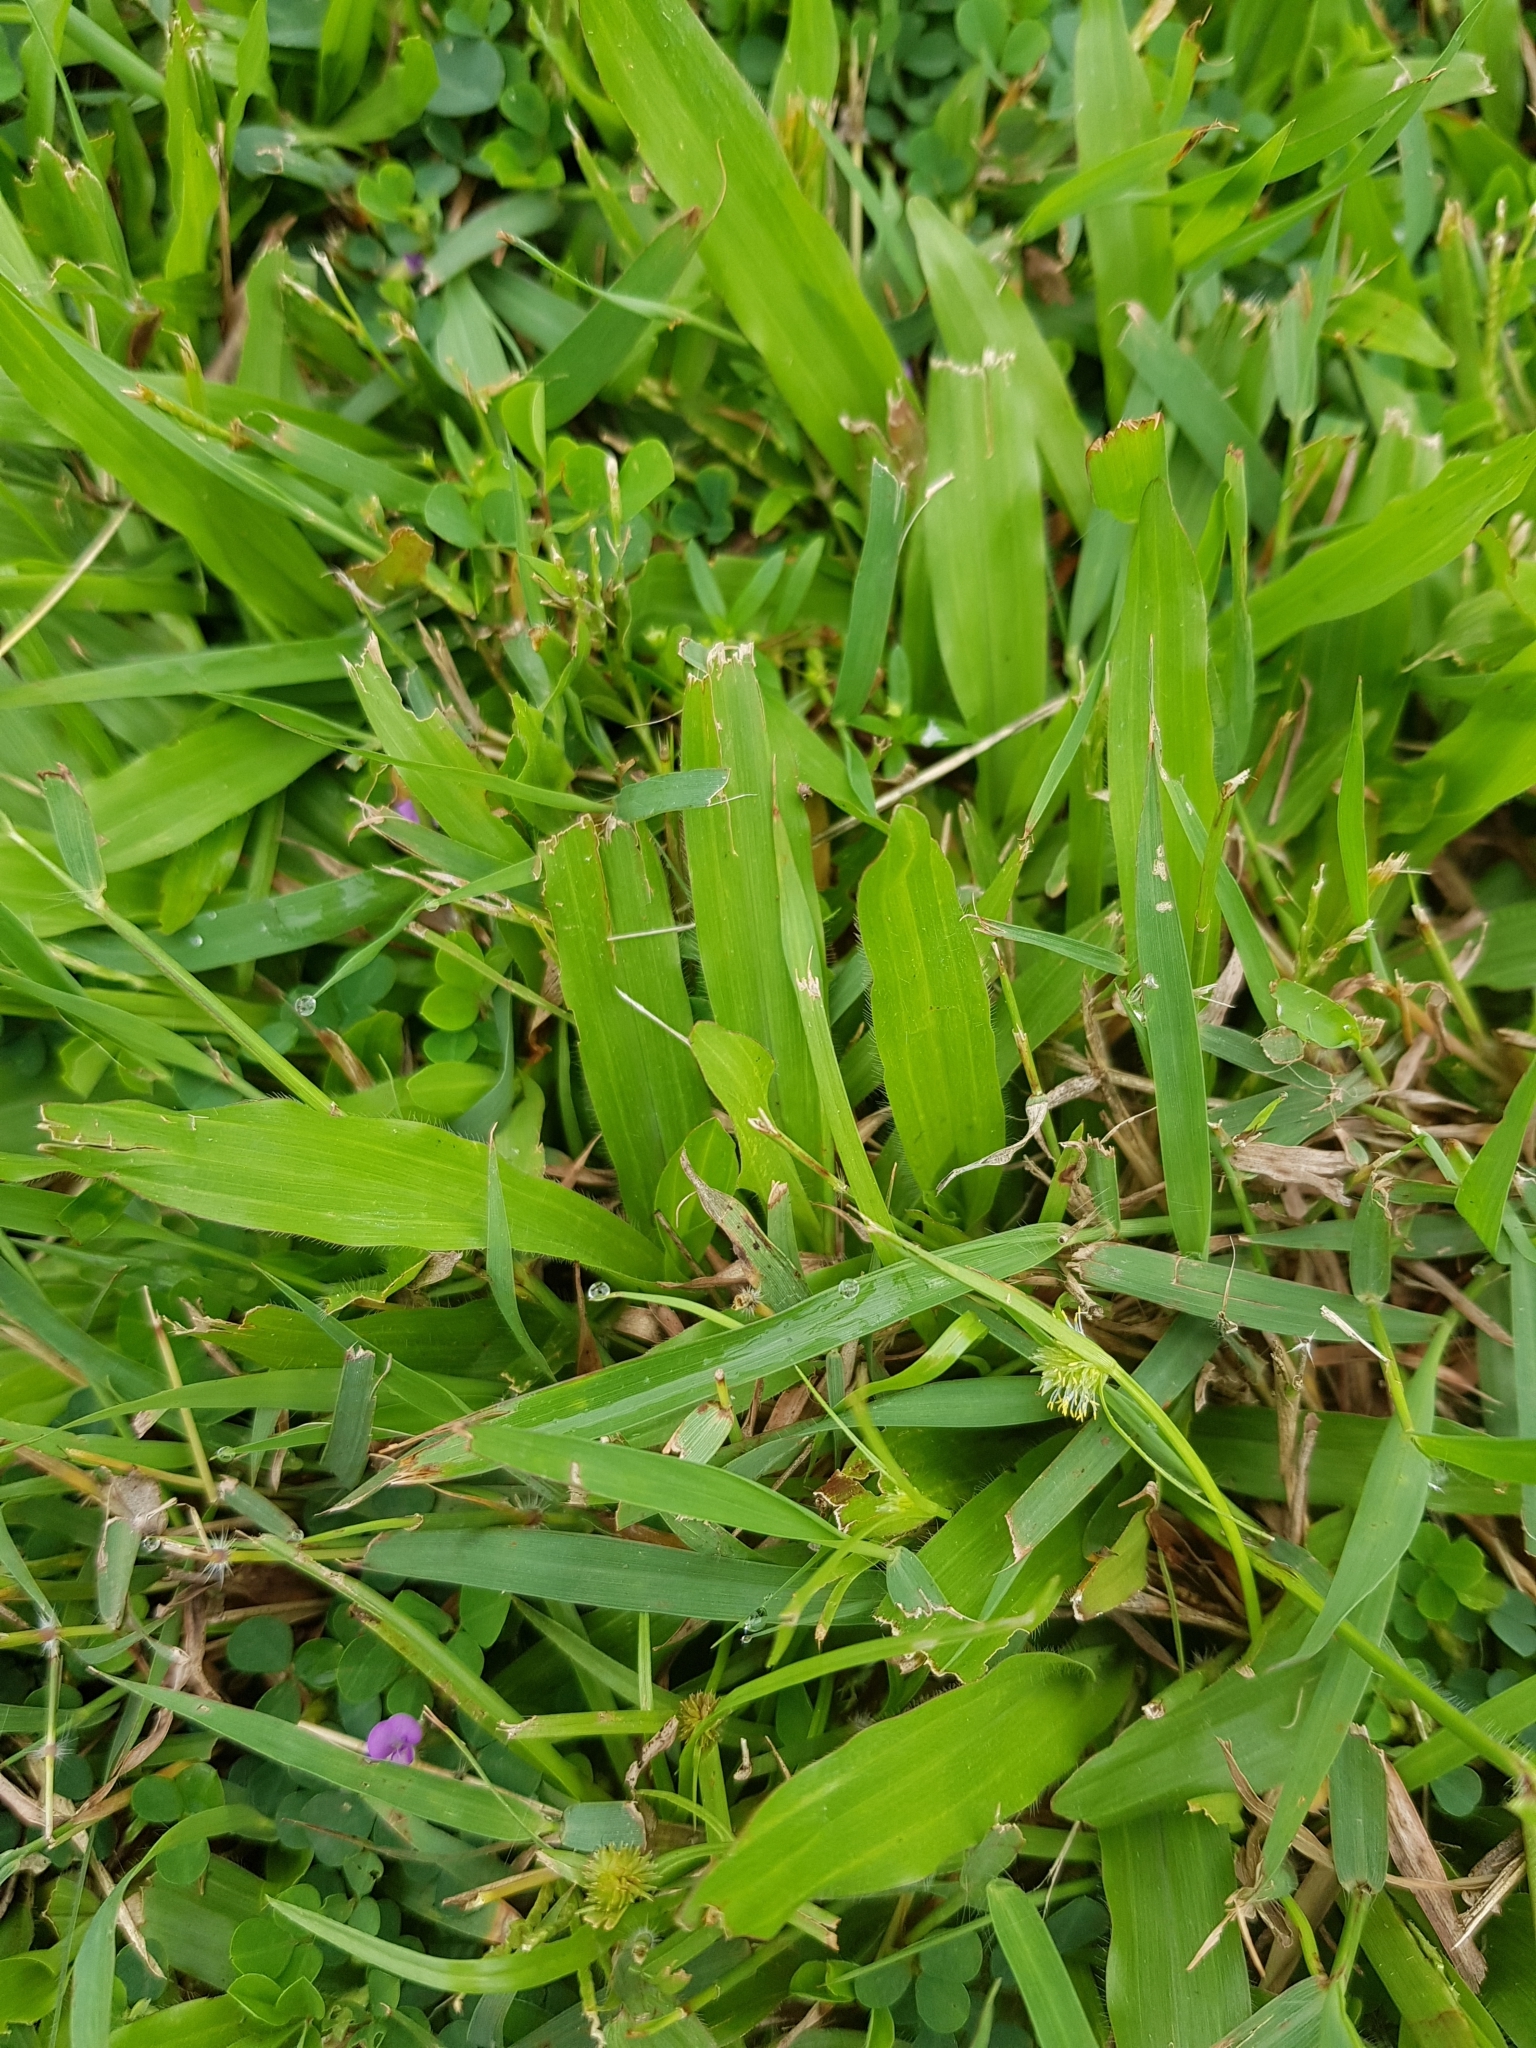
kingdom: Plantae
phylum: Tracheophyta
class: Liliopsida
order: Poales
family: Poaceae
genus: Axonopus
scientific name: Axonopus compressus
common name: American carpet grass
